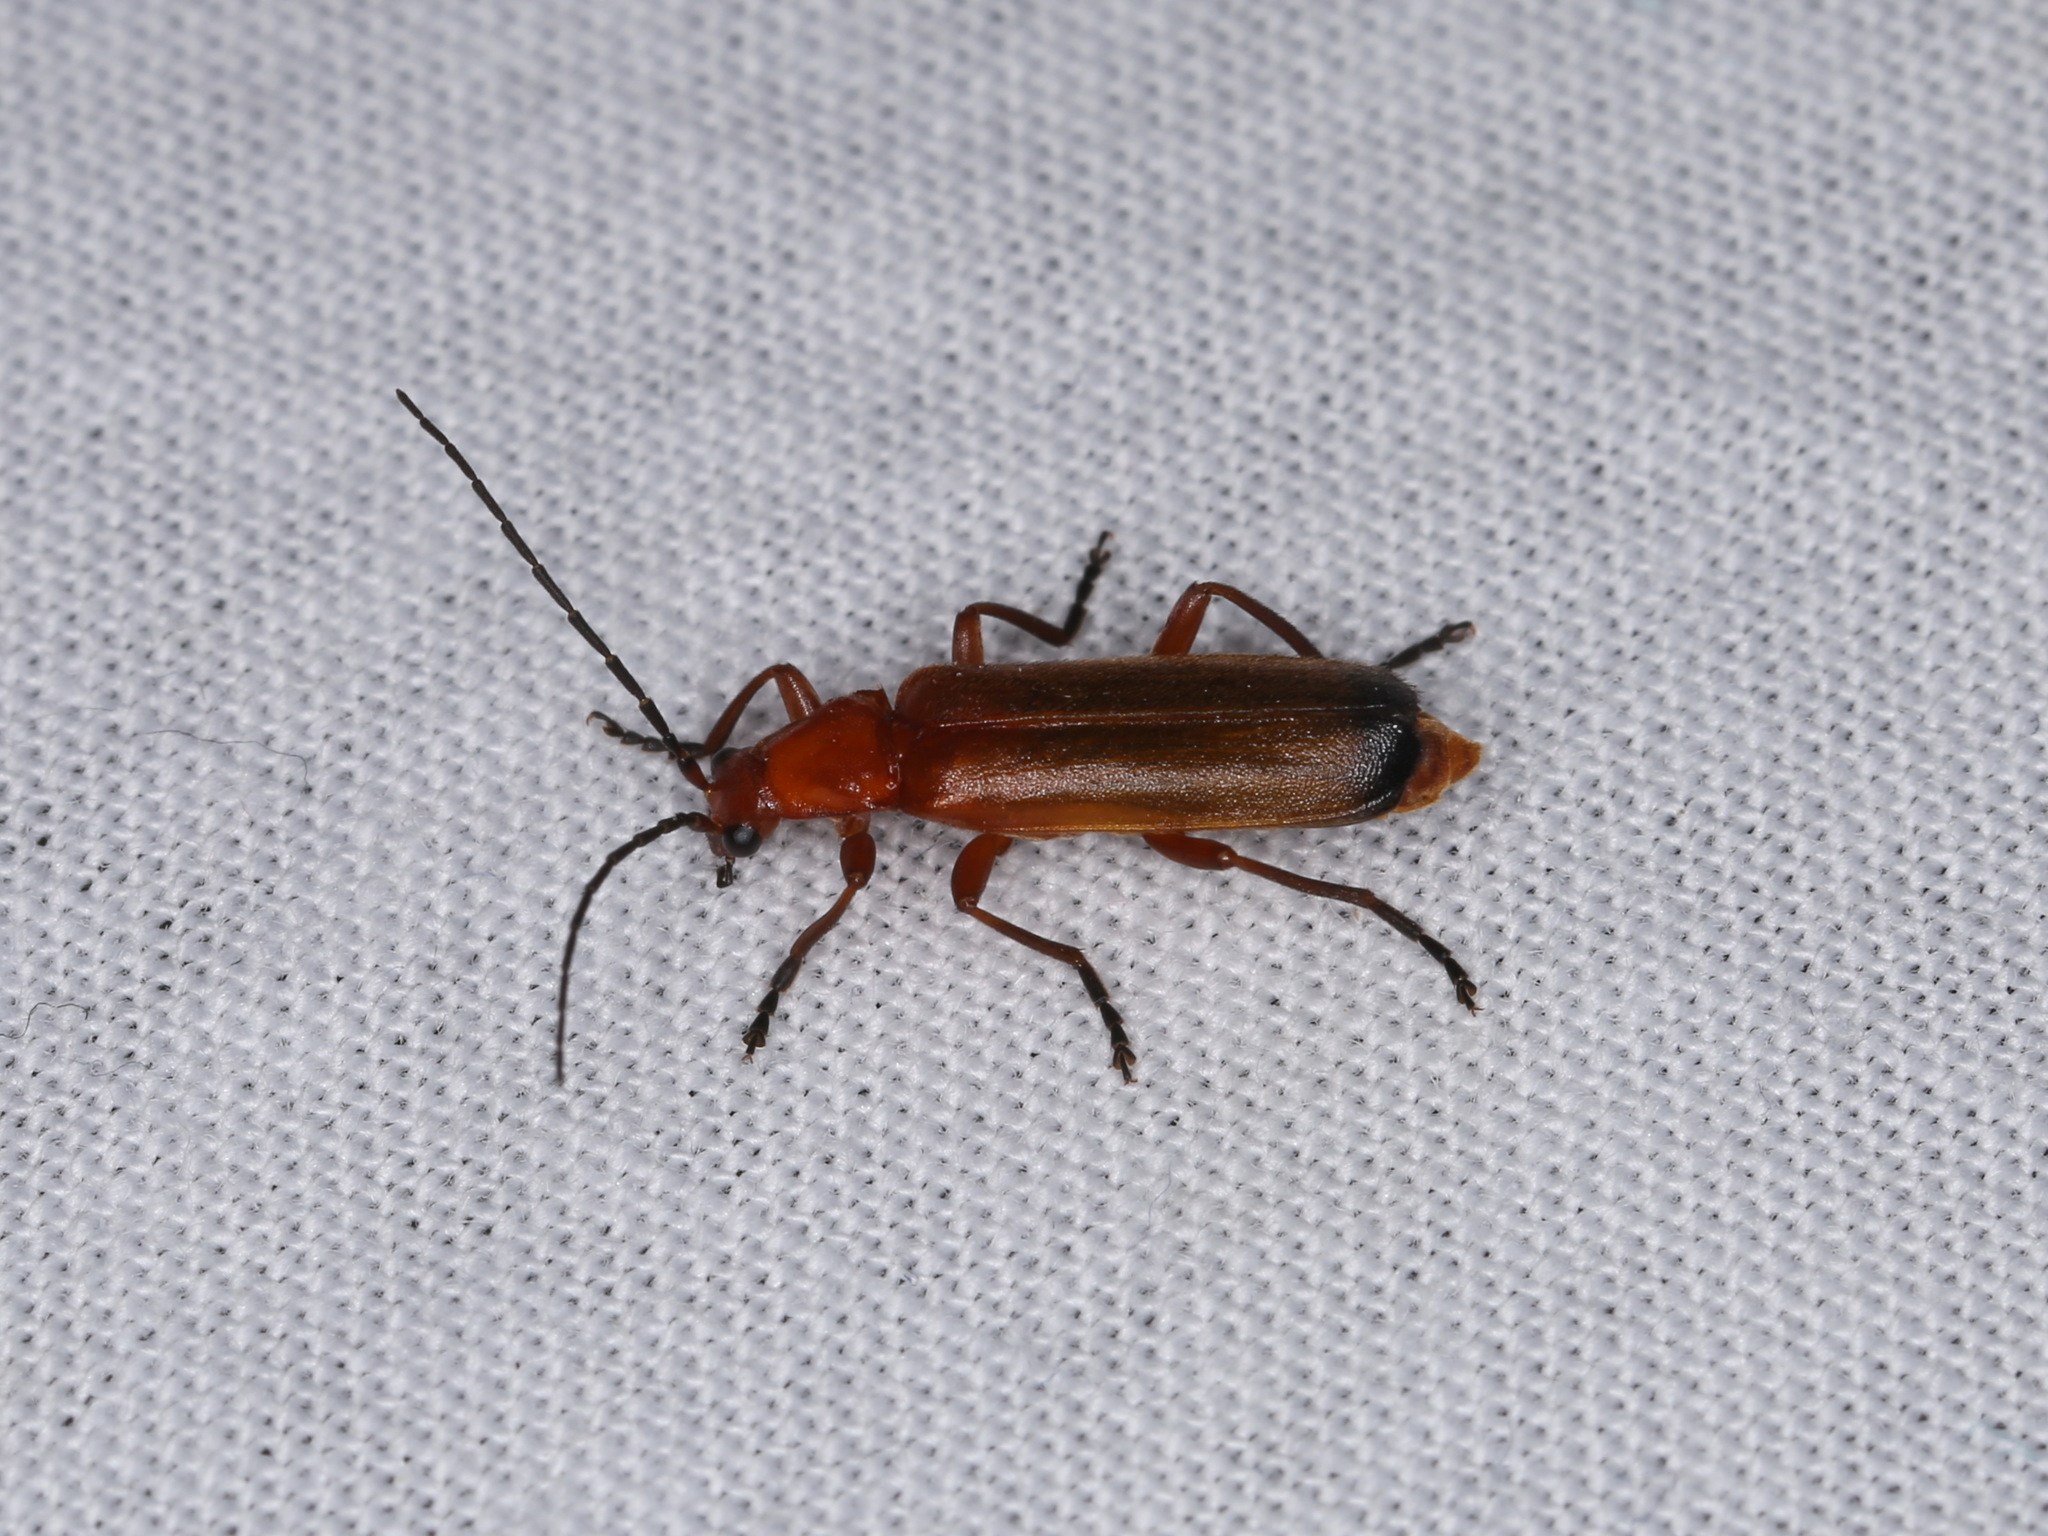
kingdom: Animalia
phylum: Arthropoda
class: Insecta
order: Coleoptera
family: Cantharidae
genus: Rhagonycha
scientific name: Rhagonycha fulva
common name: Common red soldier beetle
